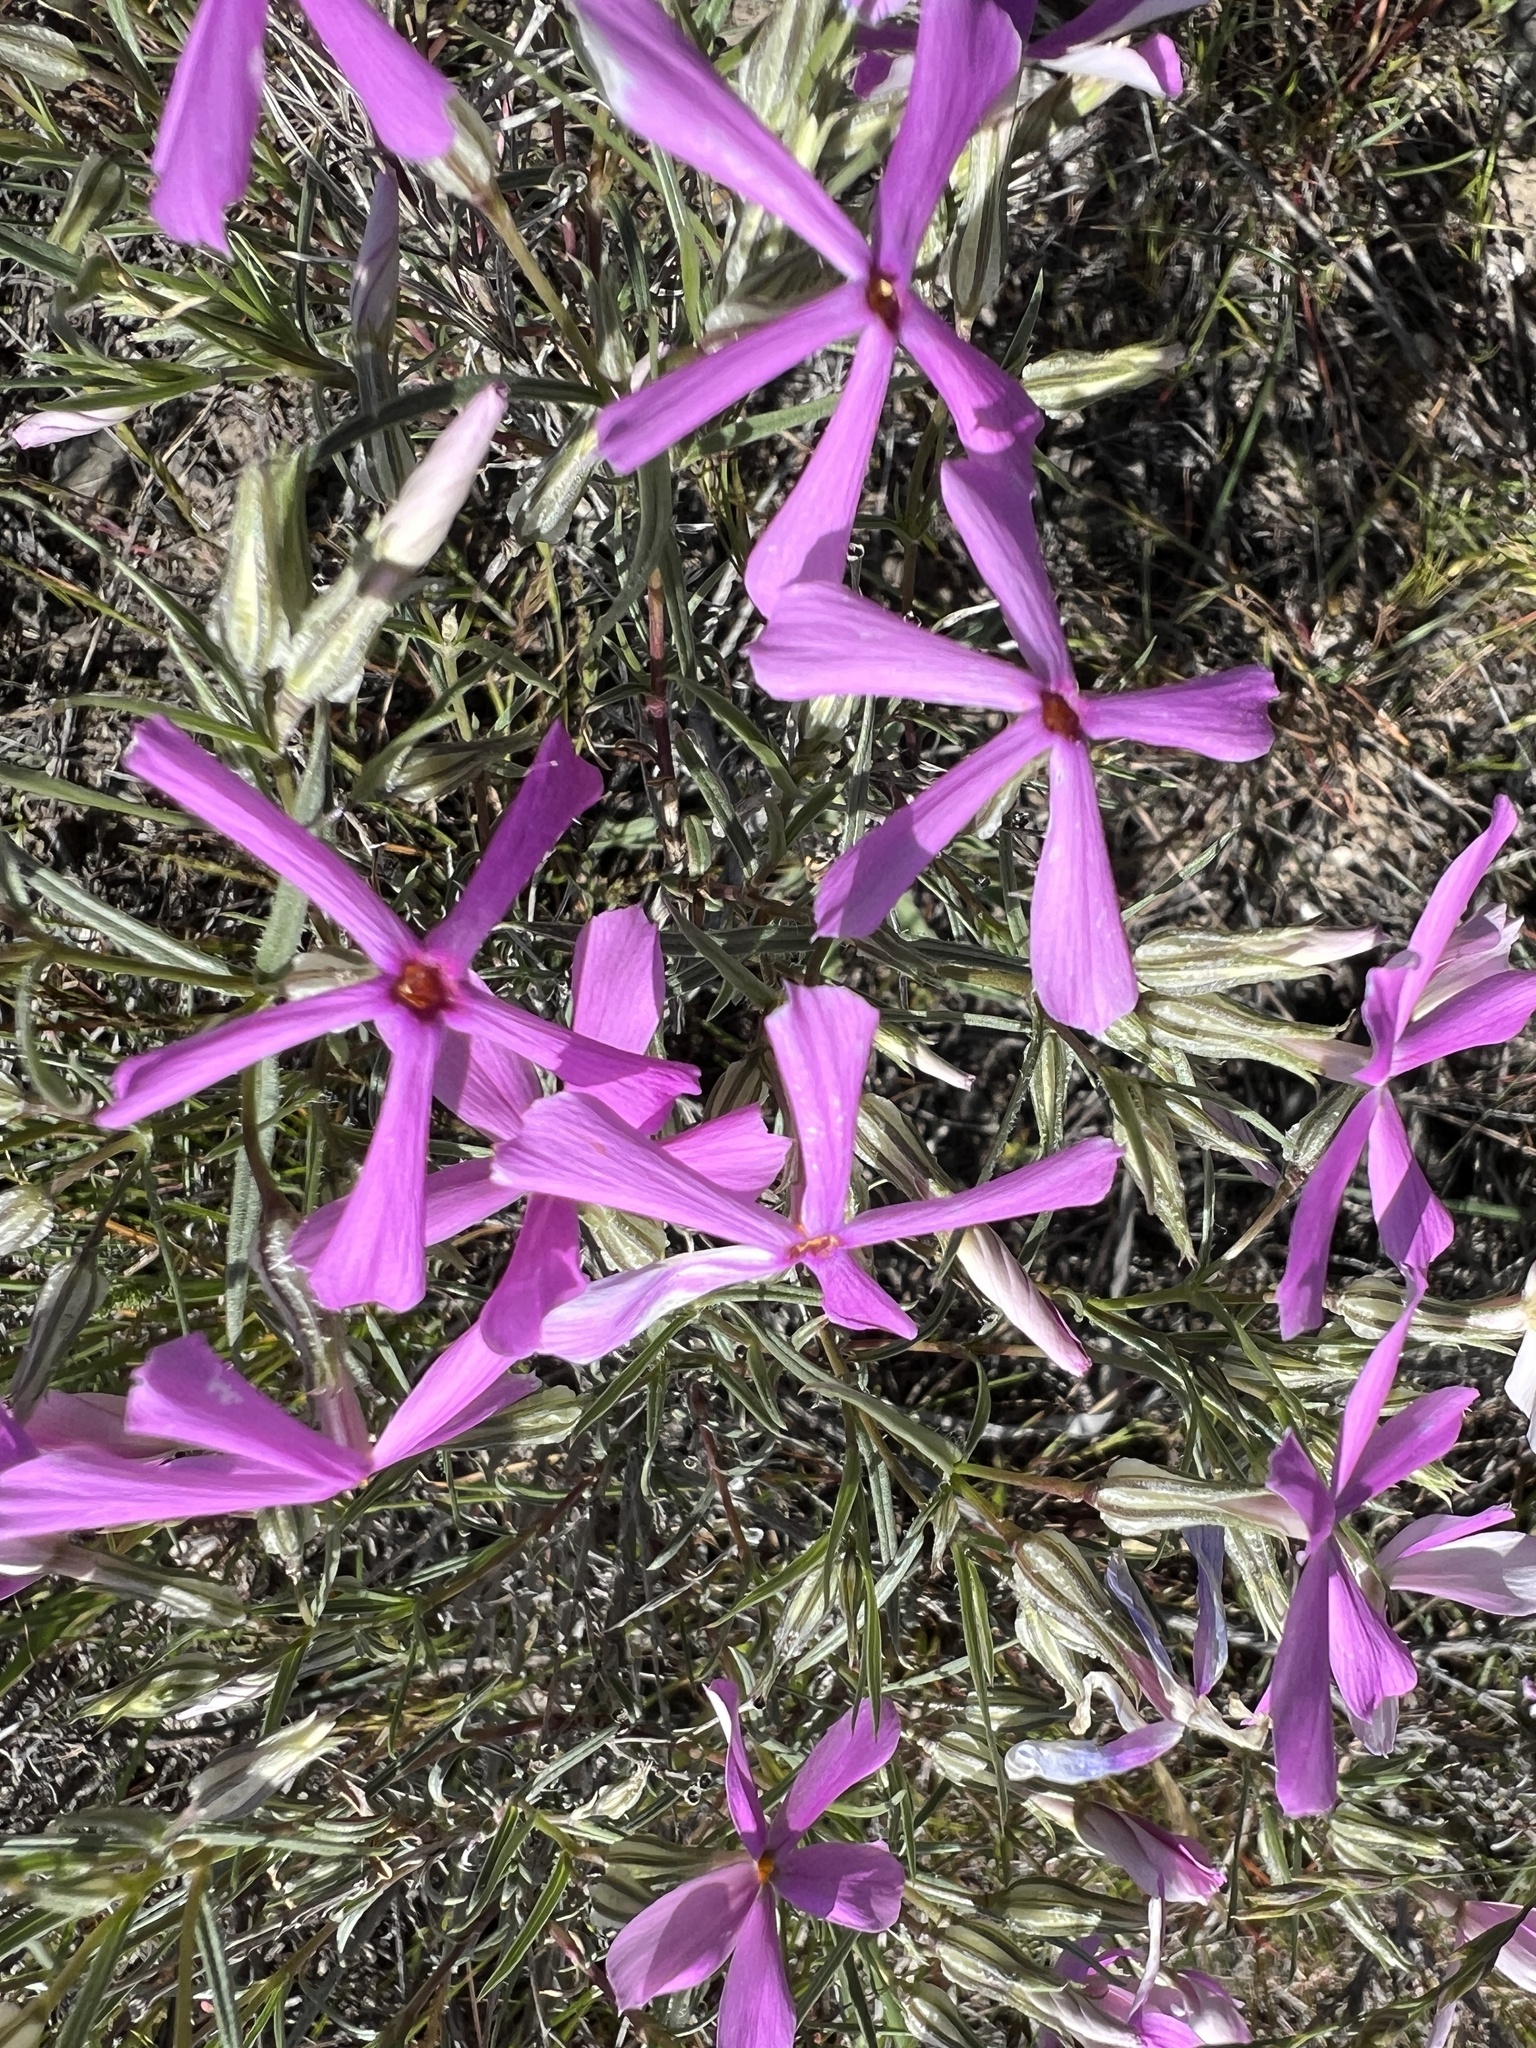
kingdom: Plantae
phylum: Tracheophyta
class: Magnoliopsida
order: Ericales
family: Polemoniaceae
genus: Phlox
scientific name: Phlox longifolia
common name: Longleaf phlox
